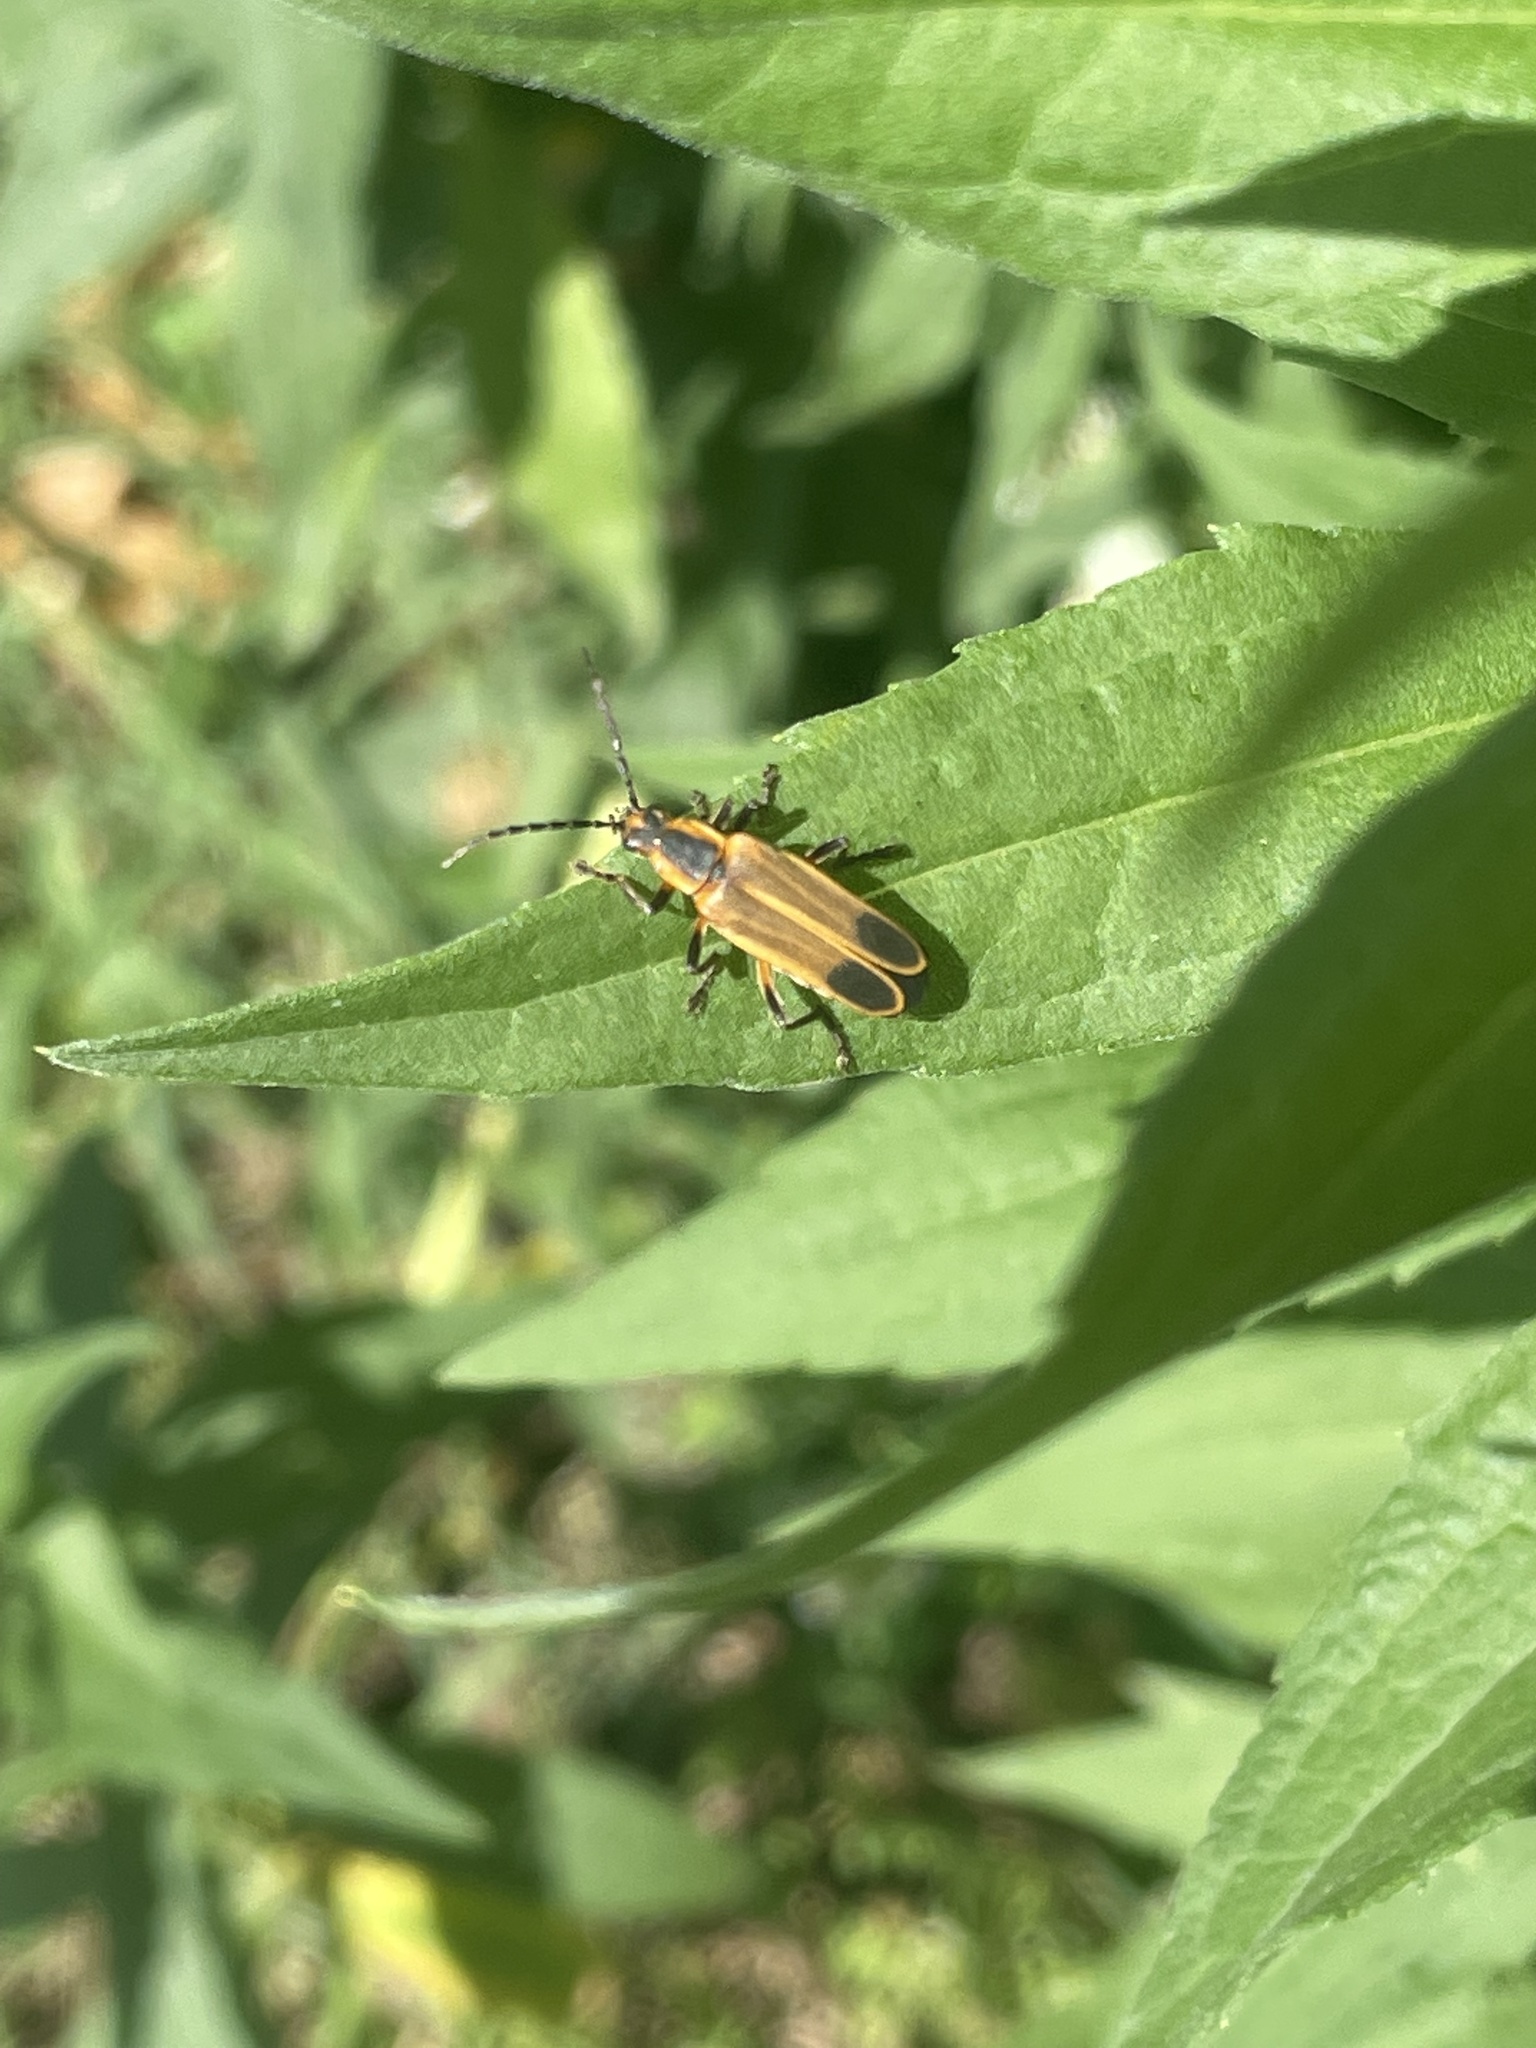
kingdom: Animalia
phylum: Arthropoda
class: Insecta
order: Coleoptera
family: Cantharidae
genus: Chauliognathus
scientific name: Chauliognathus marginatus
